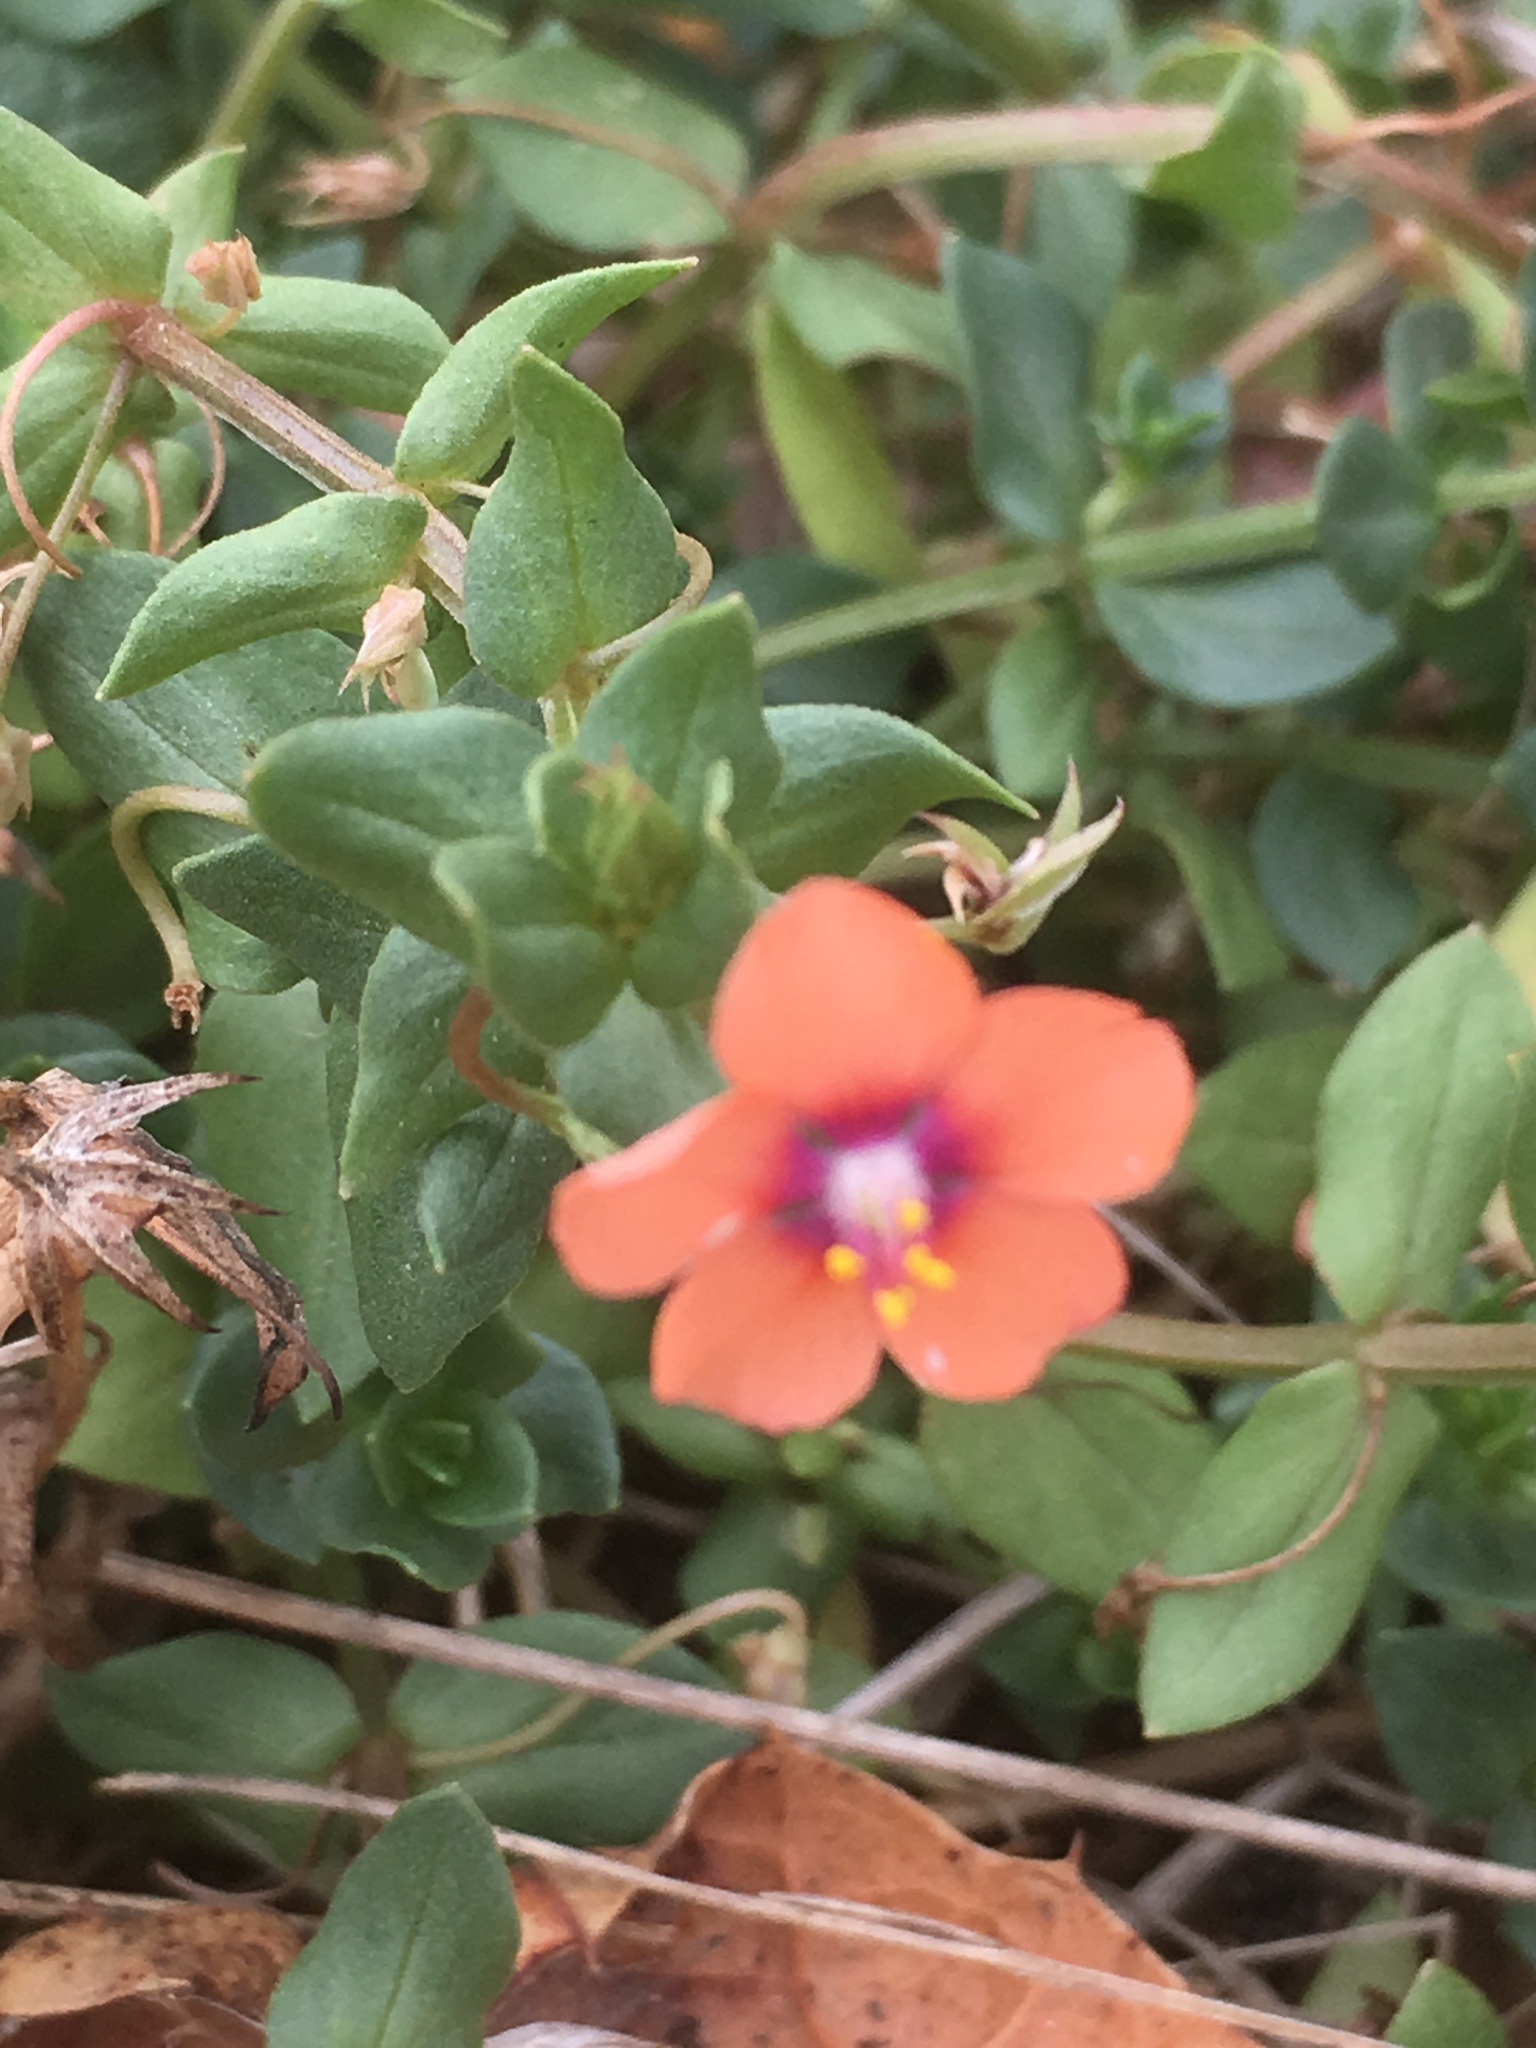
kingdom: Plantae
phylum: Tracheophyta
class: Magnoliopsida
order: Ericales
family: Primulaceae
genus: Lysimachia
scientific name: Lysimachia arvensis
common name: Scarlet pimpernel
